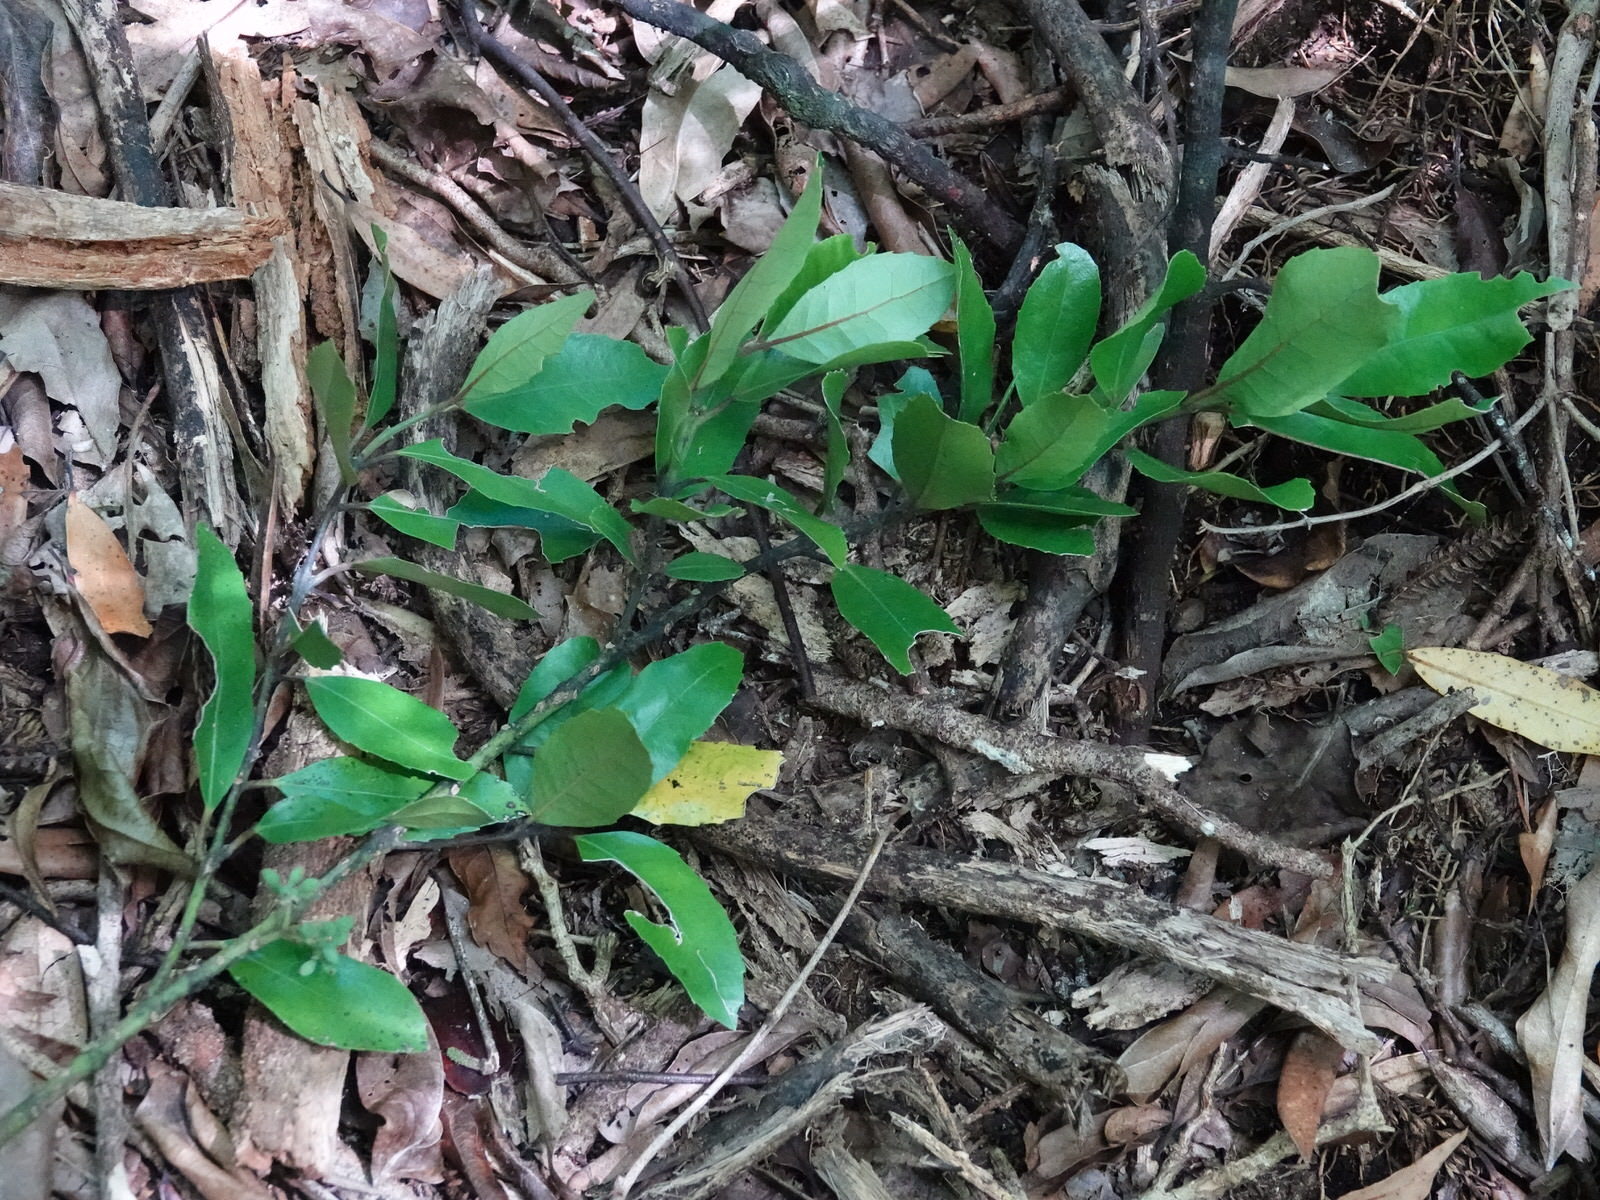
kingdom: Plantae
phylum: Tracheophyta
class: Magnoliopsida
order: Laurales
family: Monimiaceae
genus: Hedycarya
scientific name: Hedycarya arborea
